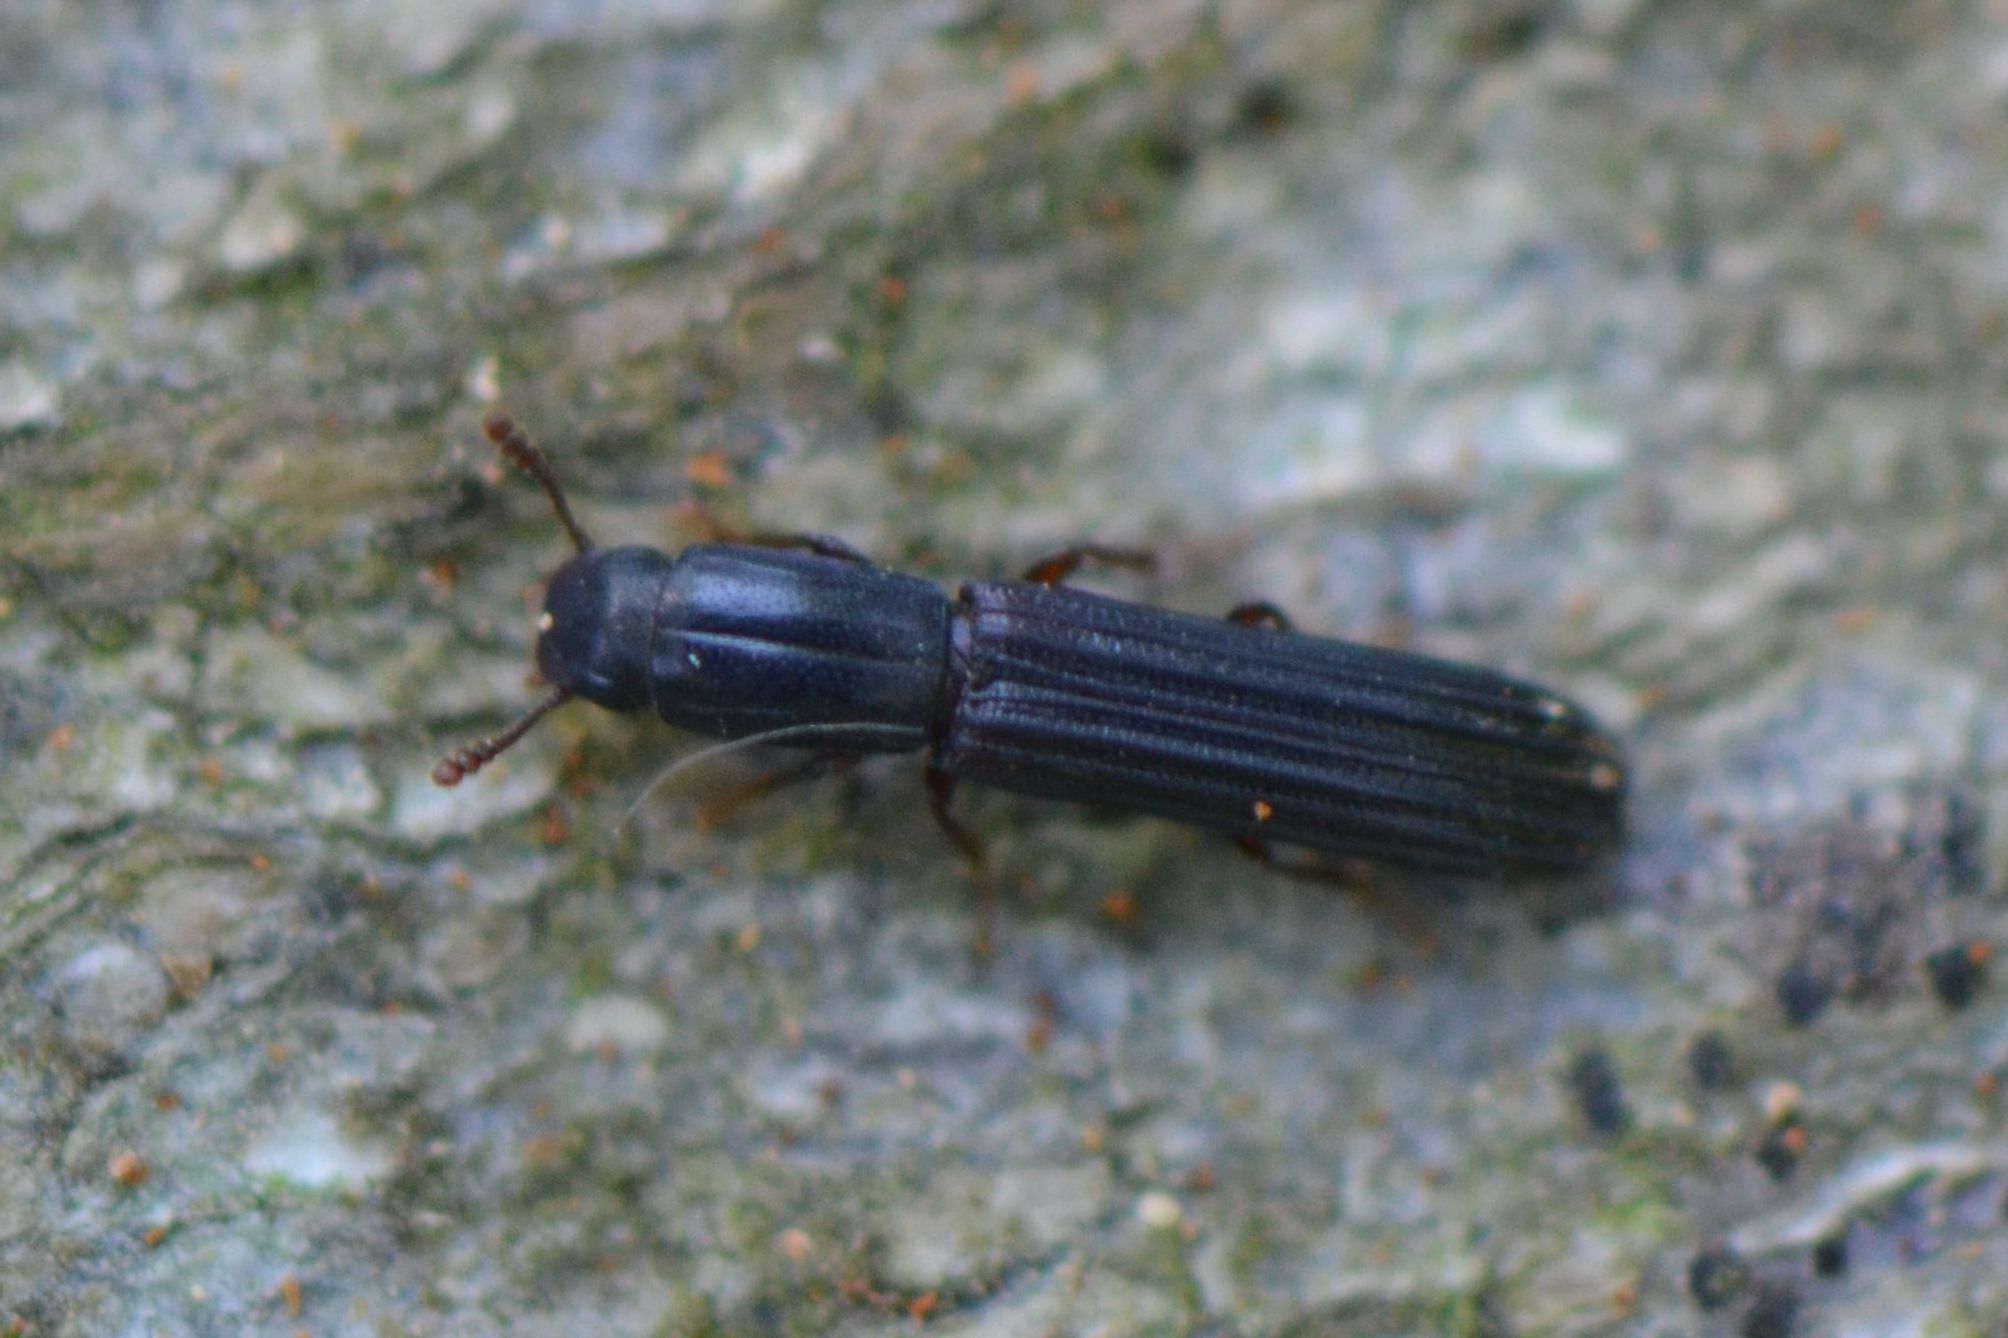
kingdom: Animalia
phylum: Arthropoda
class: Insecta
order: Coleoptera
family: Zopheridae
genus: Colydium
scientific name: Colydium elongatum
